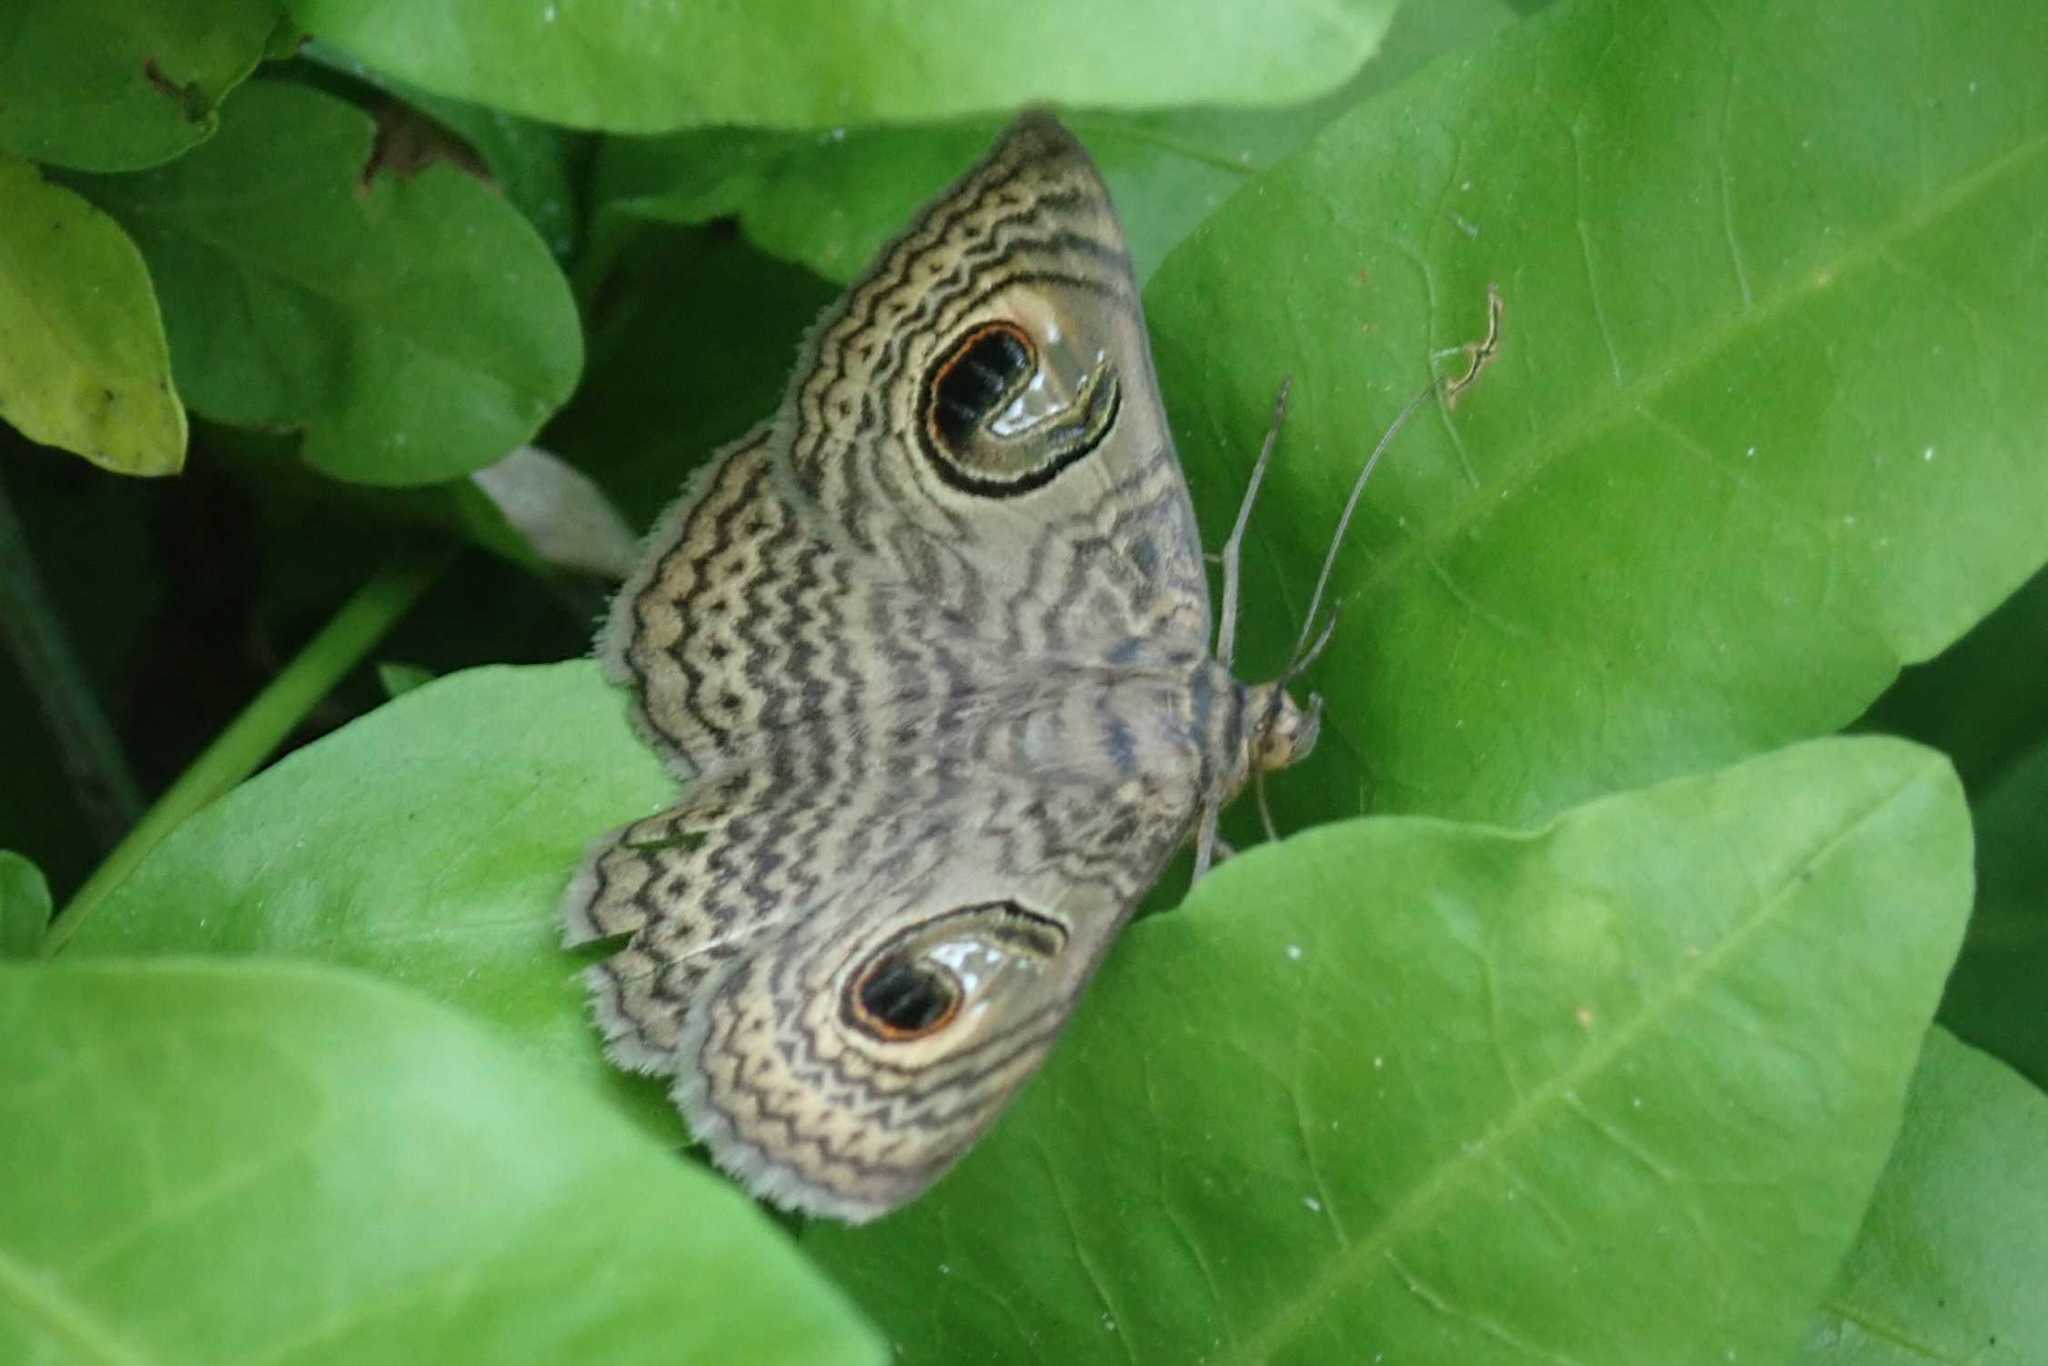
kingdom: Animalia
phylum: Arthropoda
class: Insecta
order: Lepidoptera
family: Erebidae
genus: Calliodes
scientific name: Calliodes pretiosissima
